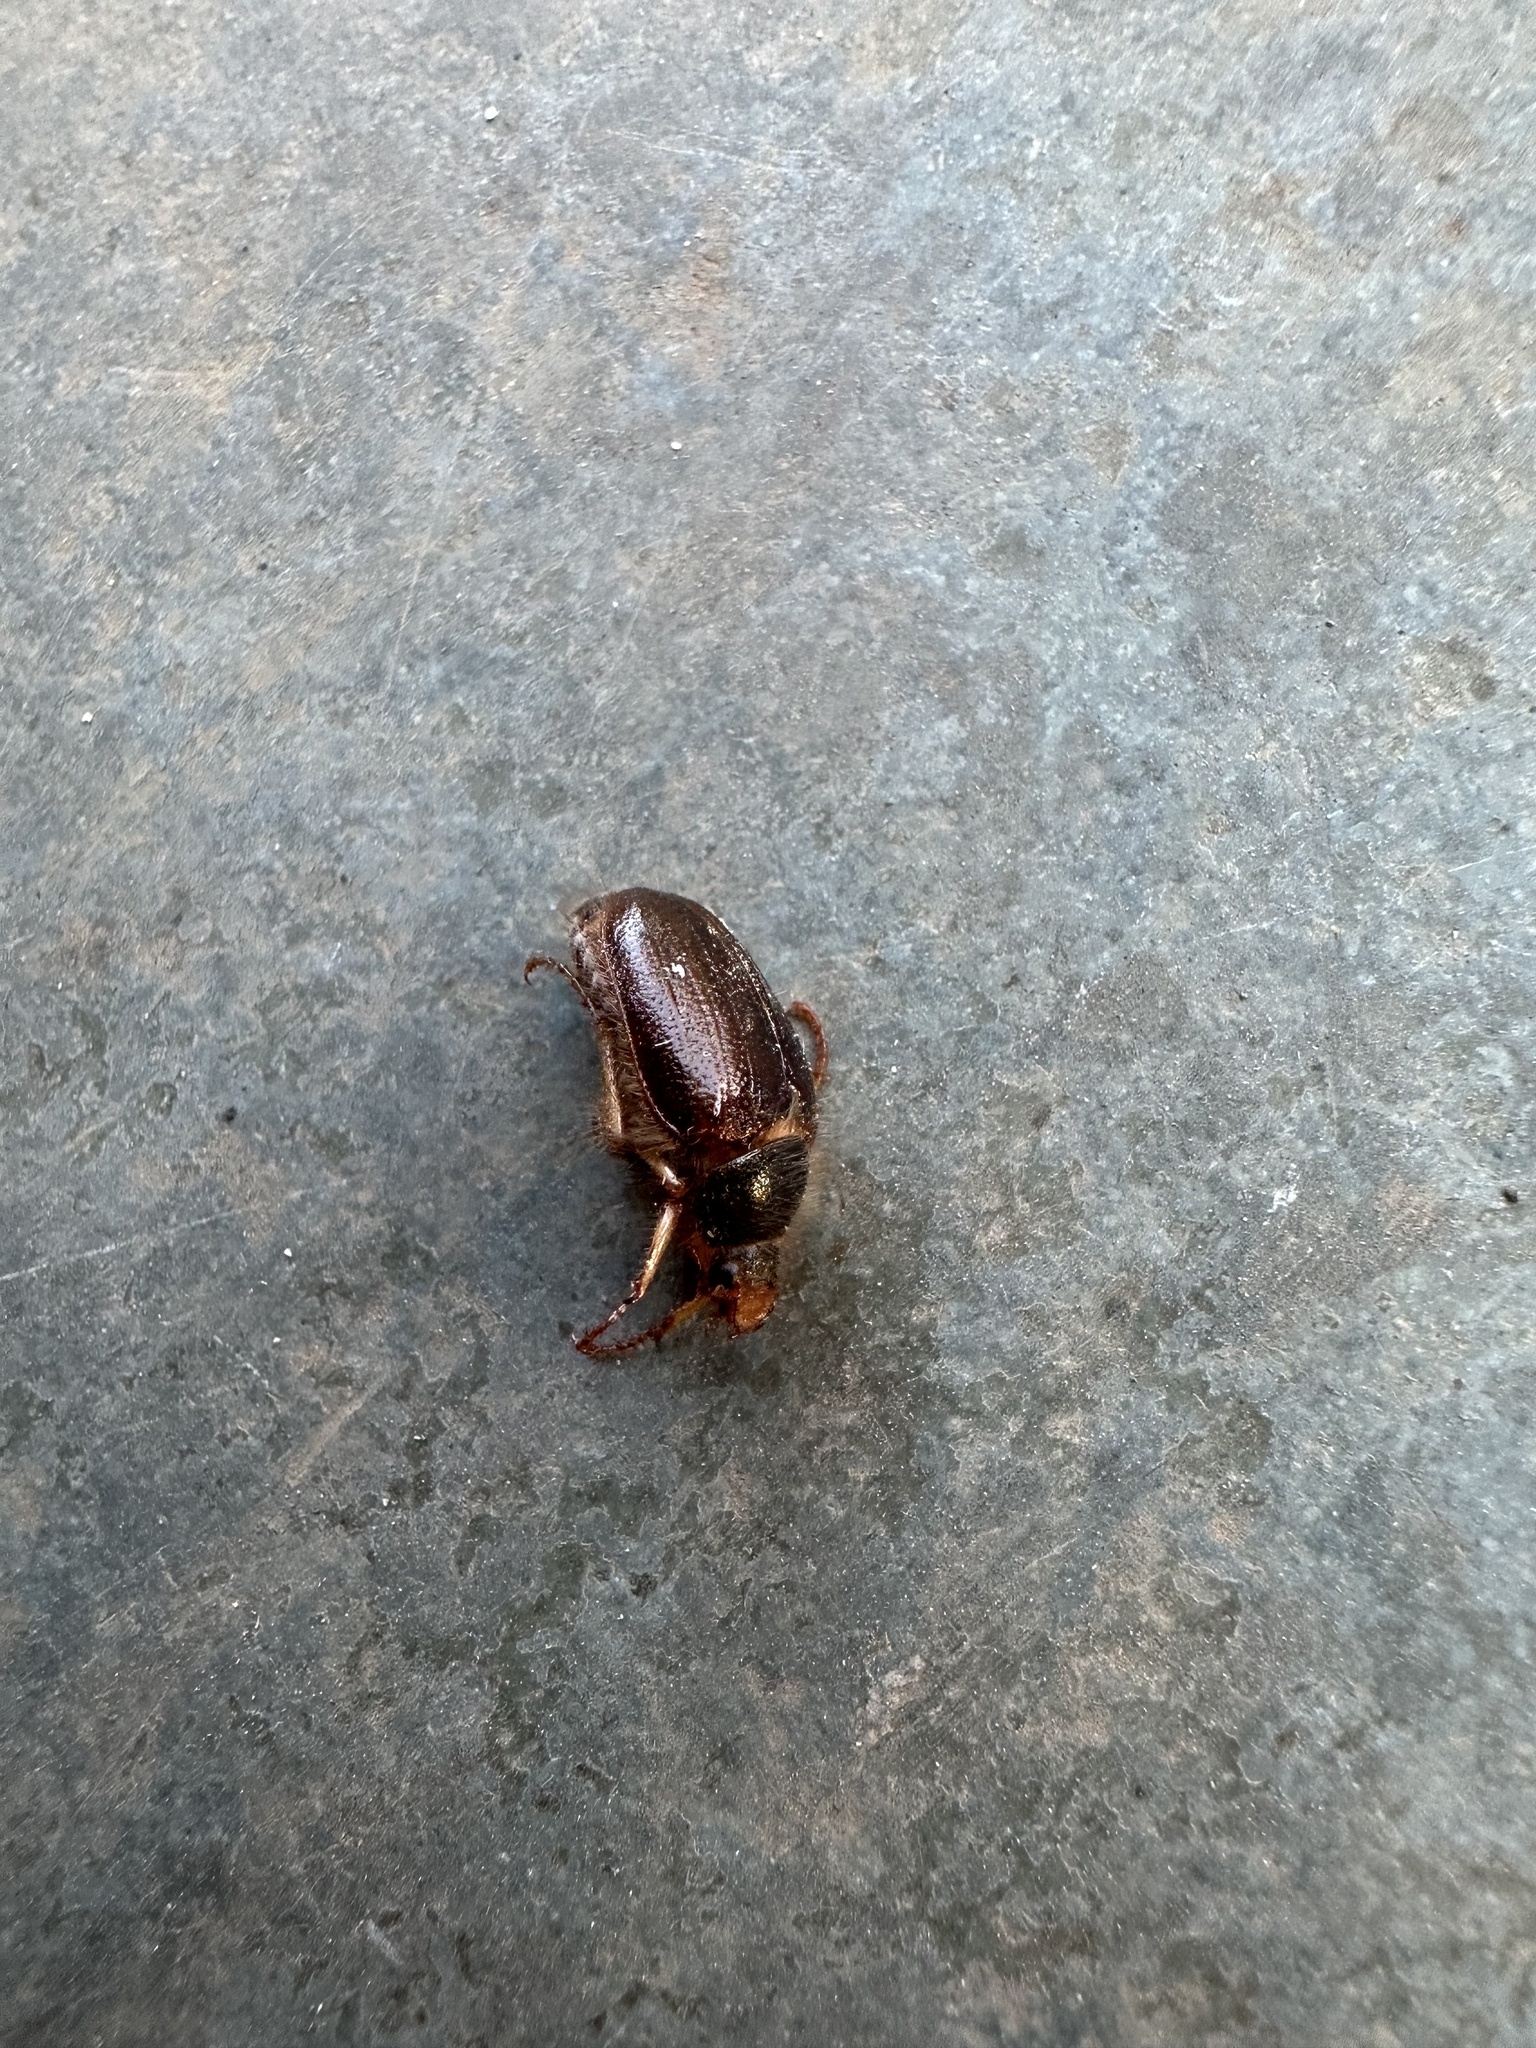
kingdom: Animalia
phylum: Arthropoda
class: Insecta
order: Coleoptera
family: Scarabaeidae
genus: Phytholaema
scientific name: Phytholaema herrmanni
